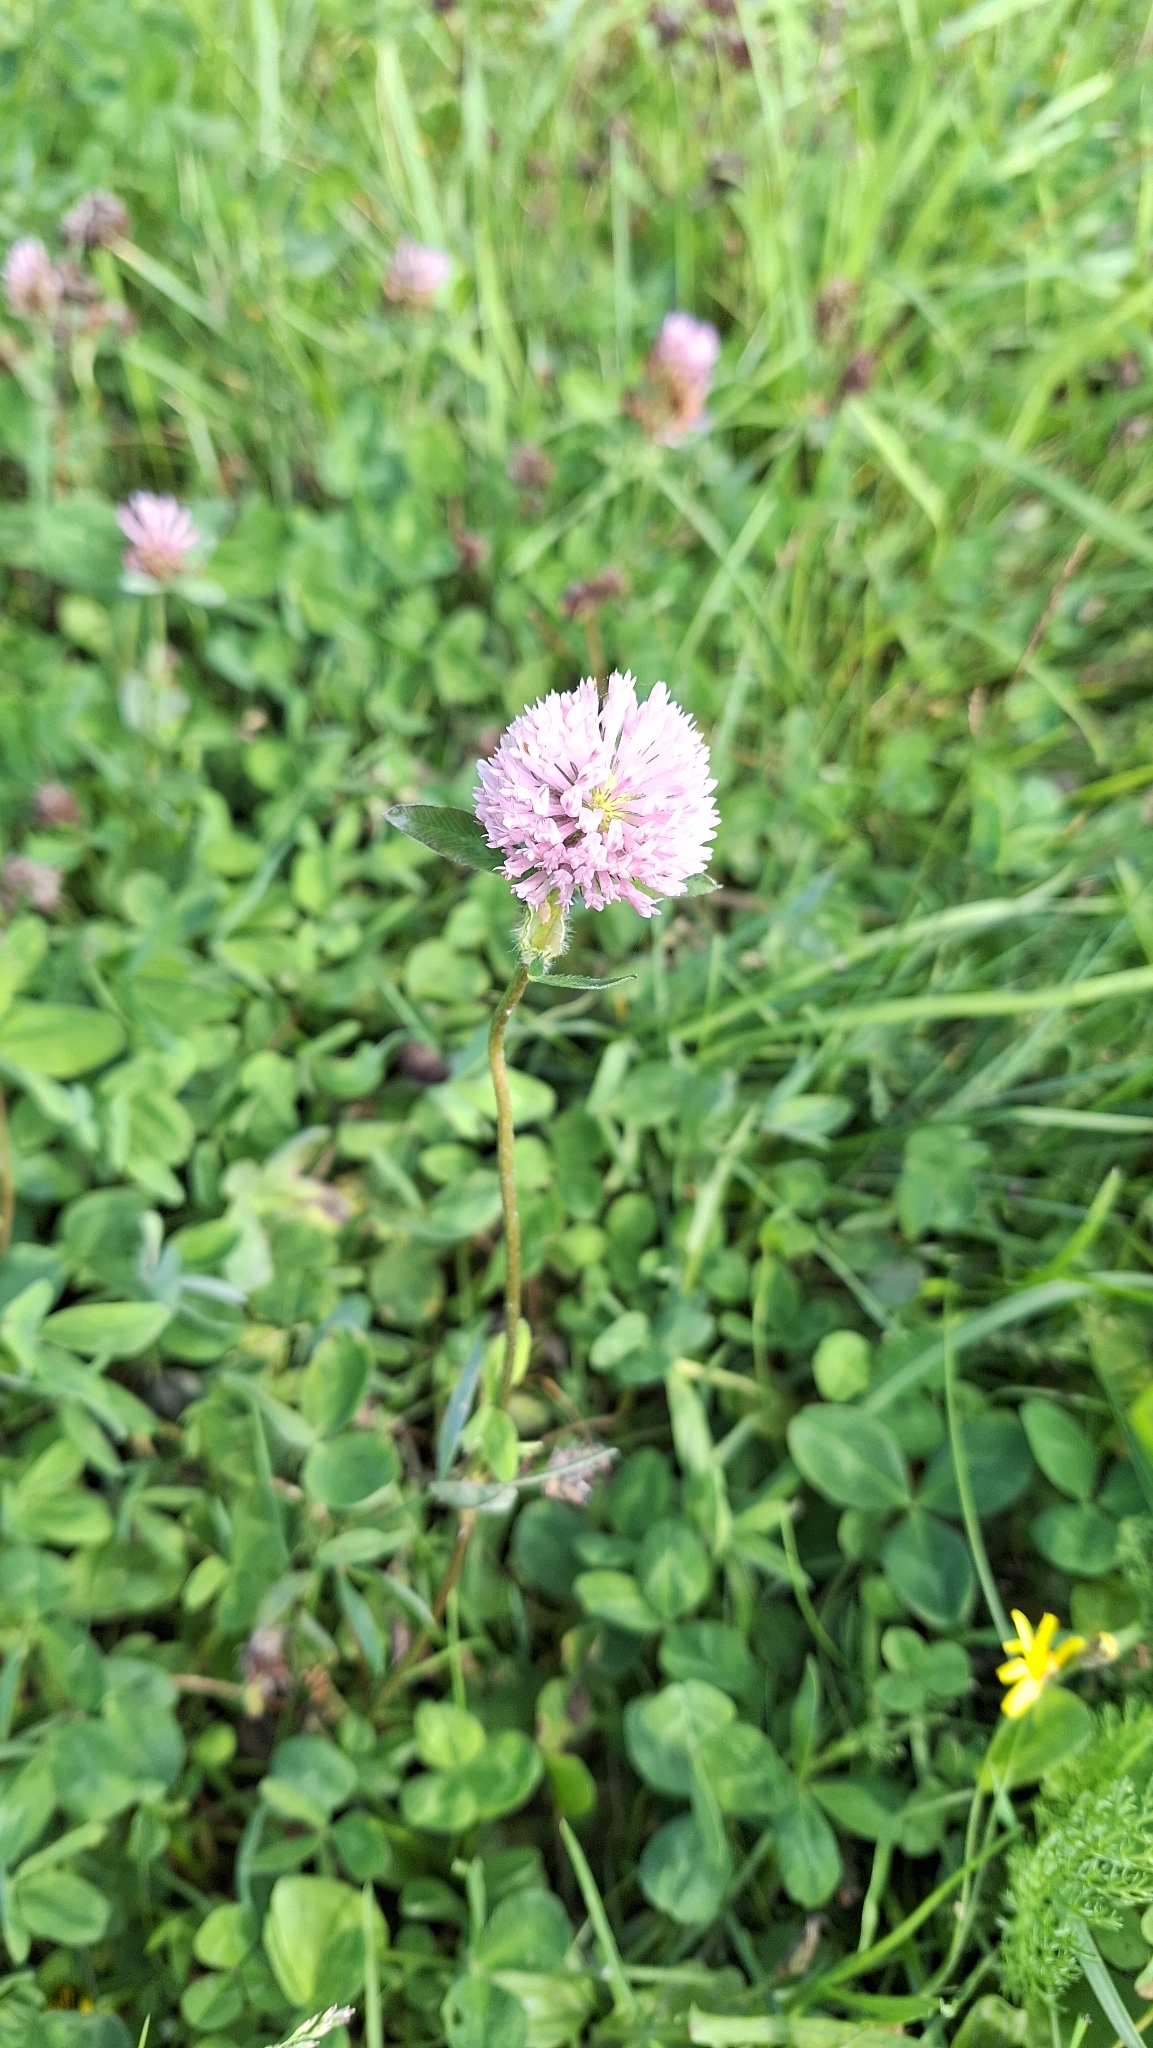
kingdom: Plantae
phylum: Tracheophyta
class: Magnoliopsida
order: Fabales
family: Fabaceae
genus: Trifolium
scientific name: Trifolium pratense
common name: Red clover
